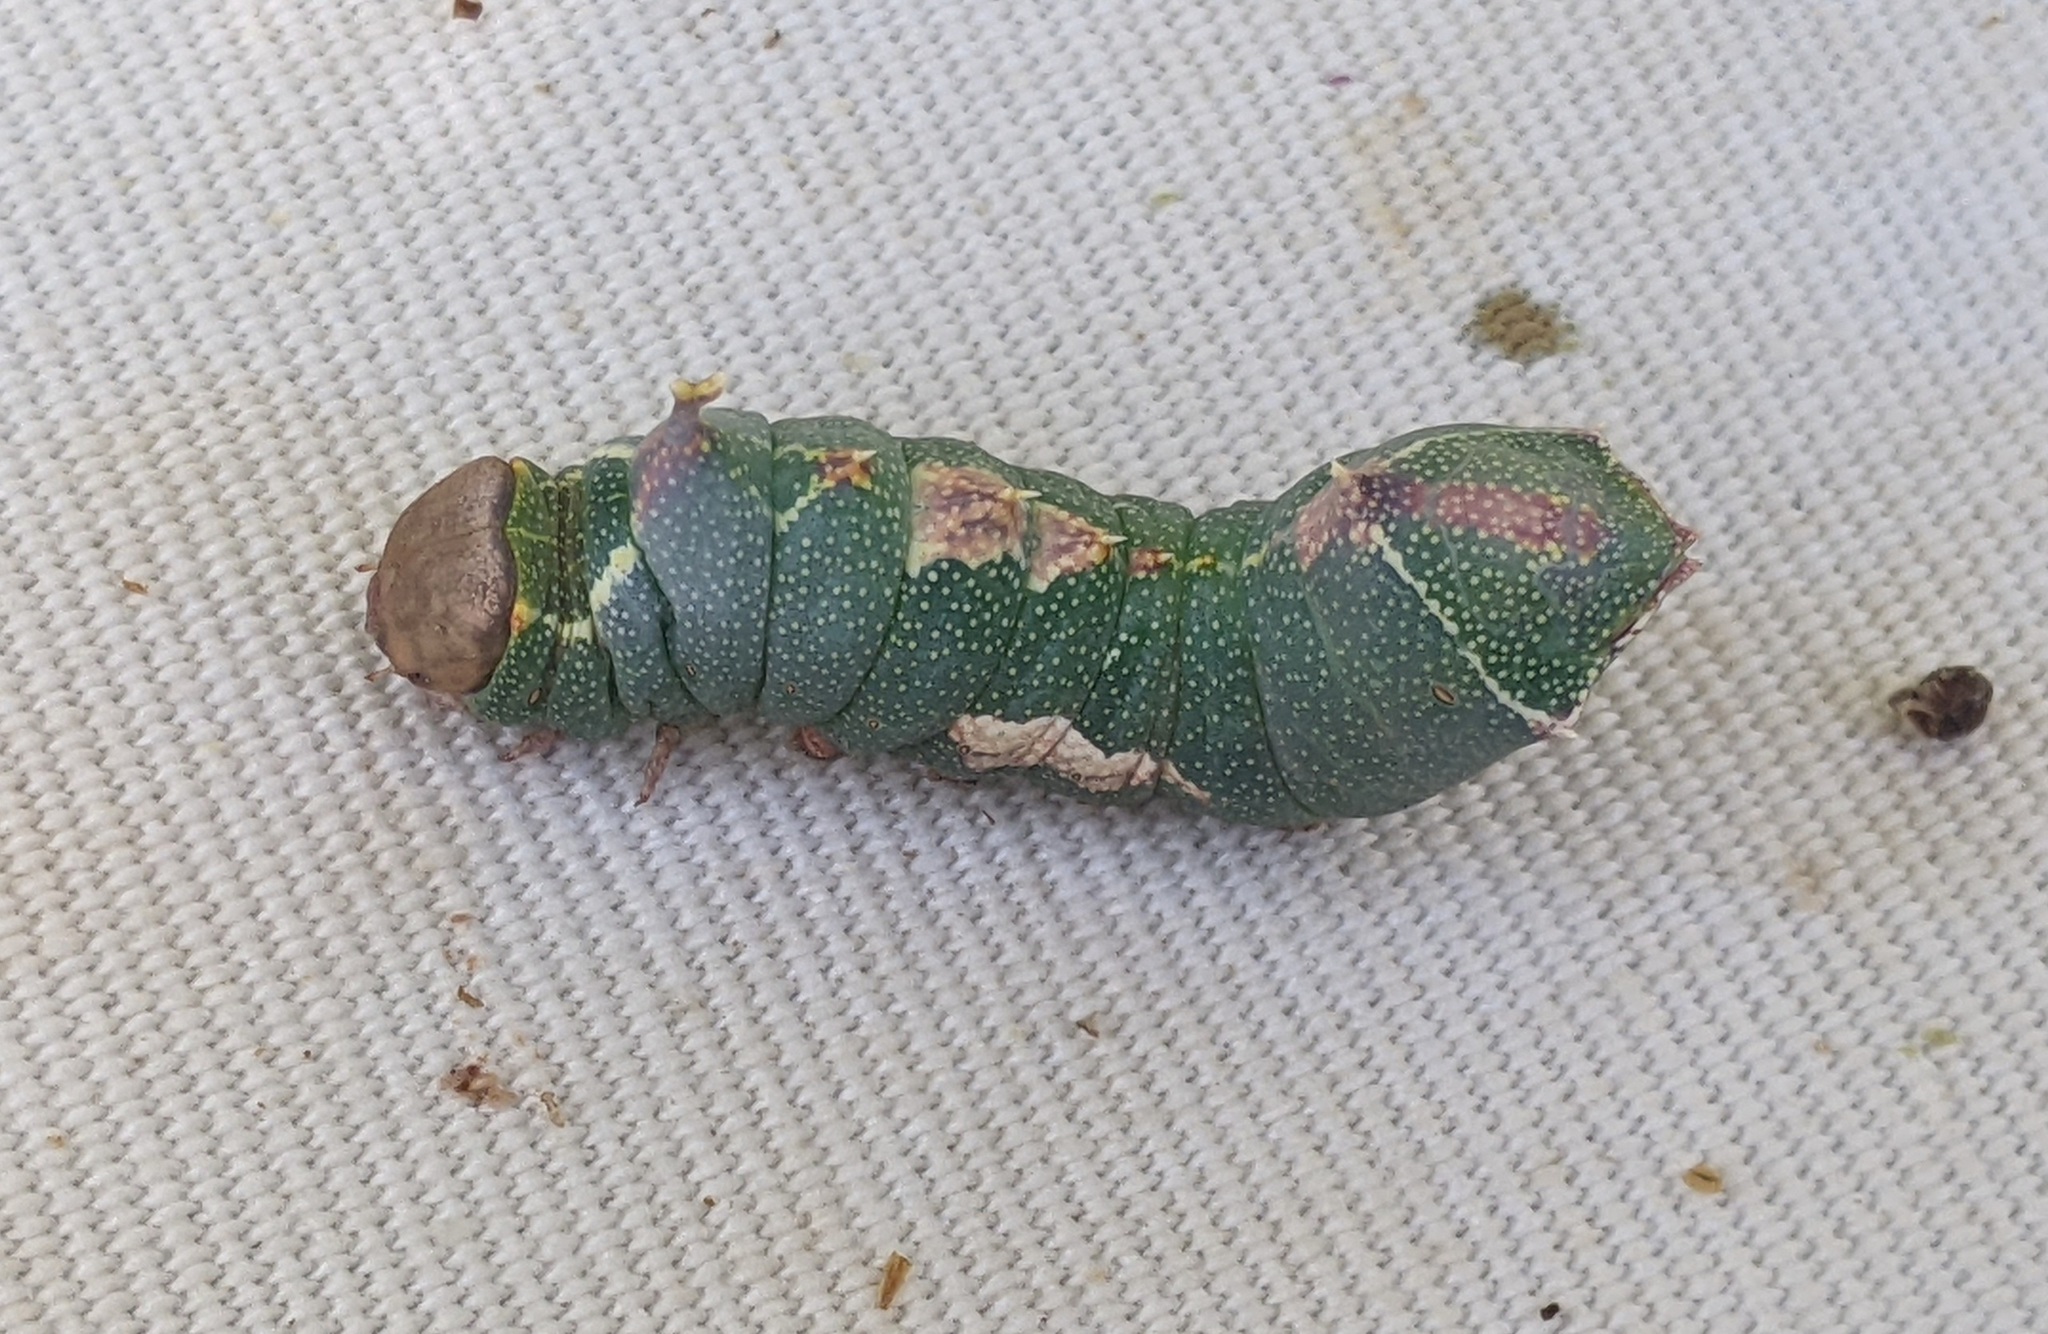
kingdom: Animalia
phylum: Arthropoda
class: Insecta
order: Lepidoptera
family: Notodontidae
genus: Harpyia
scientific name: Harpyia milhauseri
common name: Tawny prominent
